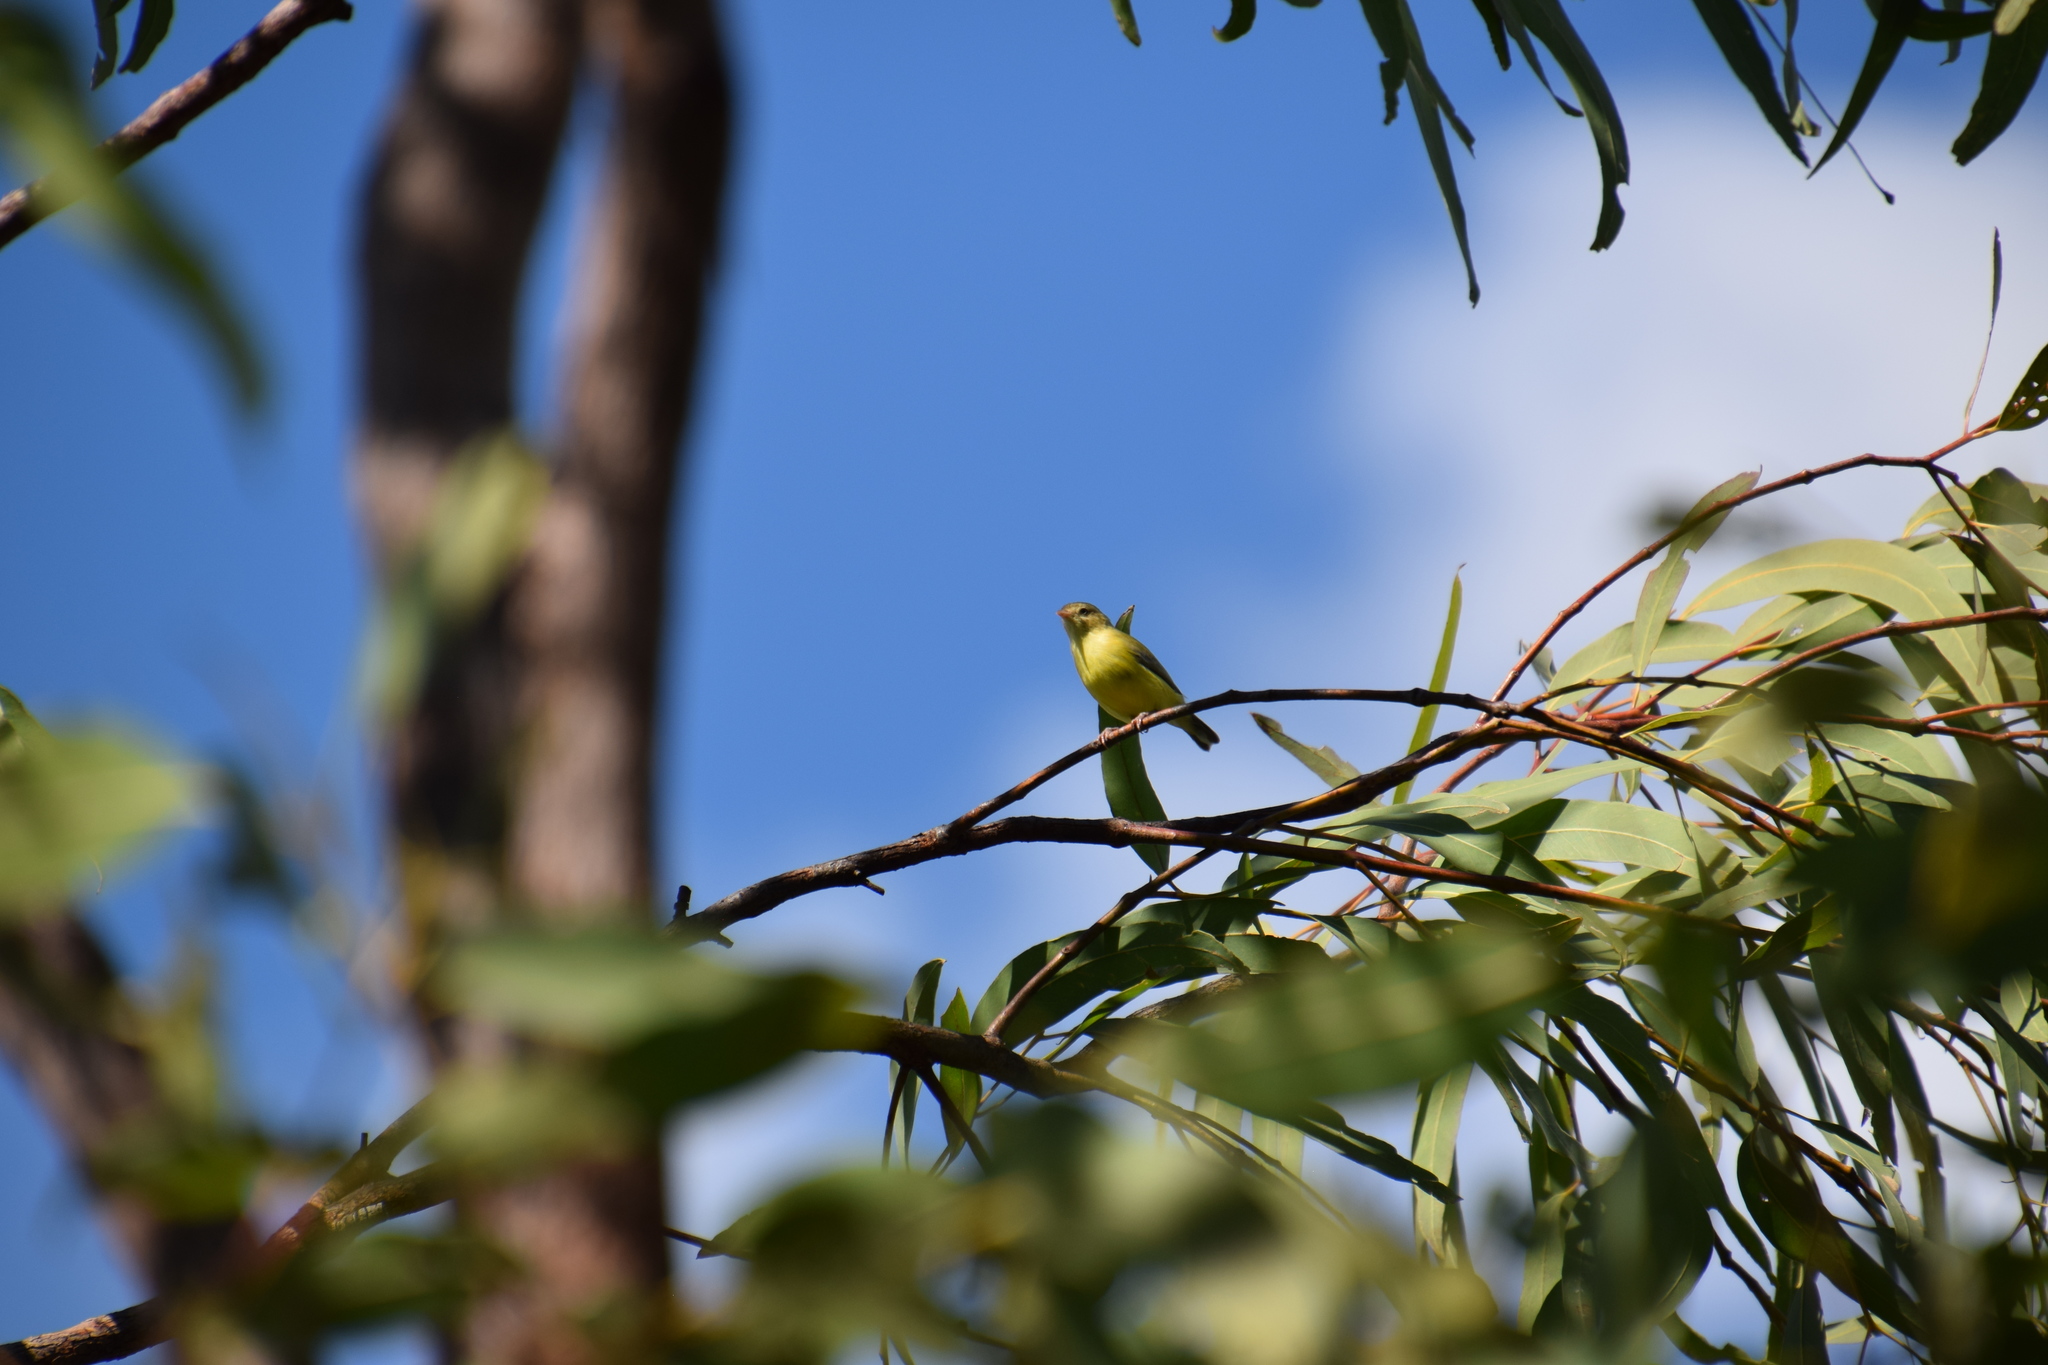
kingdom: Animalia
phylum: Chordata
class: Aves
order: Passeriformes
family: Acanthizidae
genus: Smicrornis
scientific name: Smicrornis brevirostris
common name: Weebill
